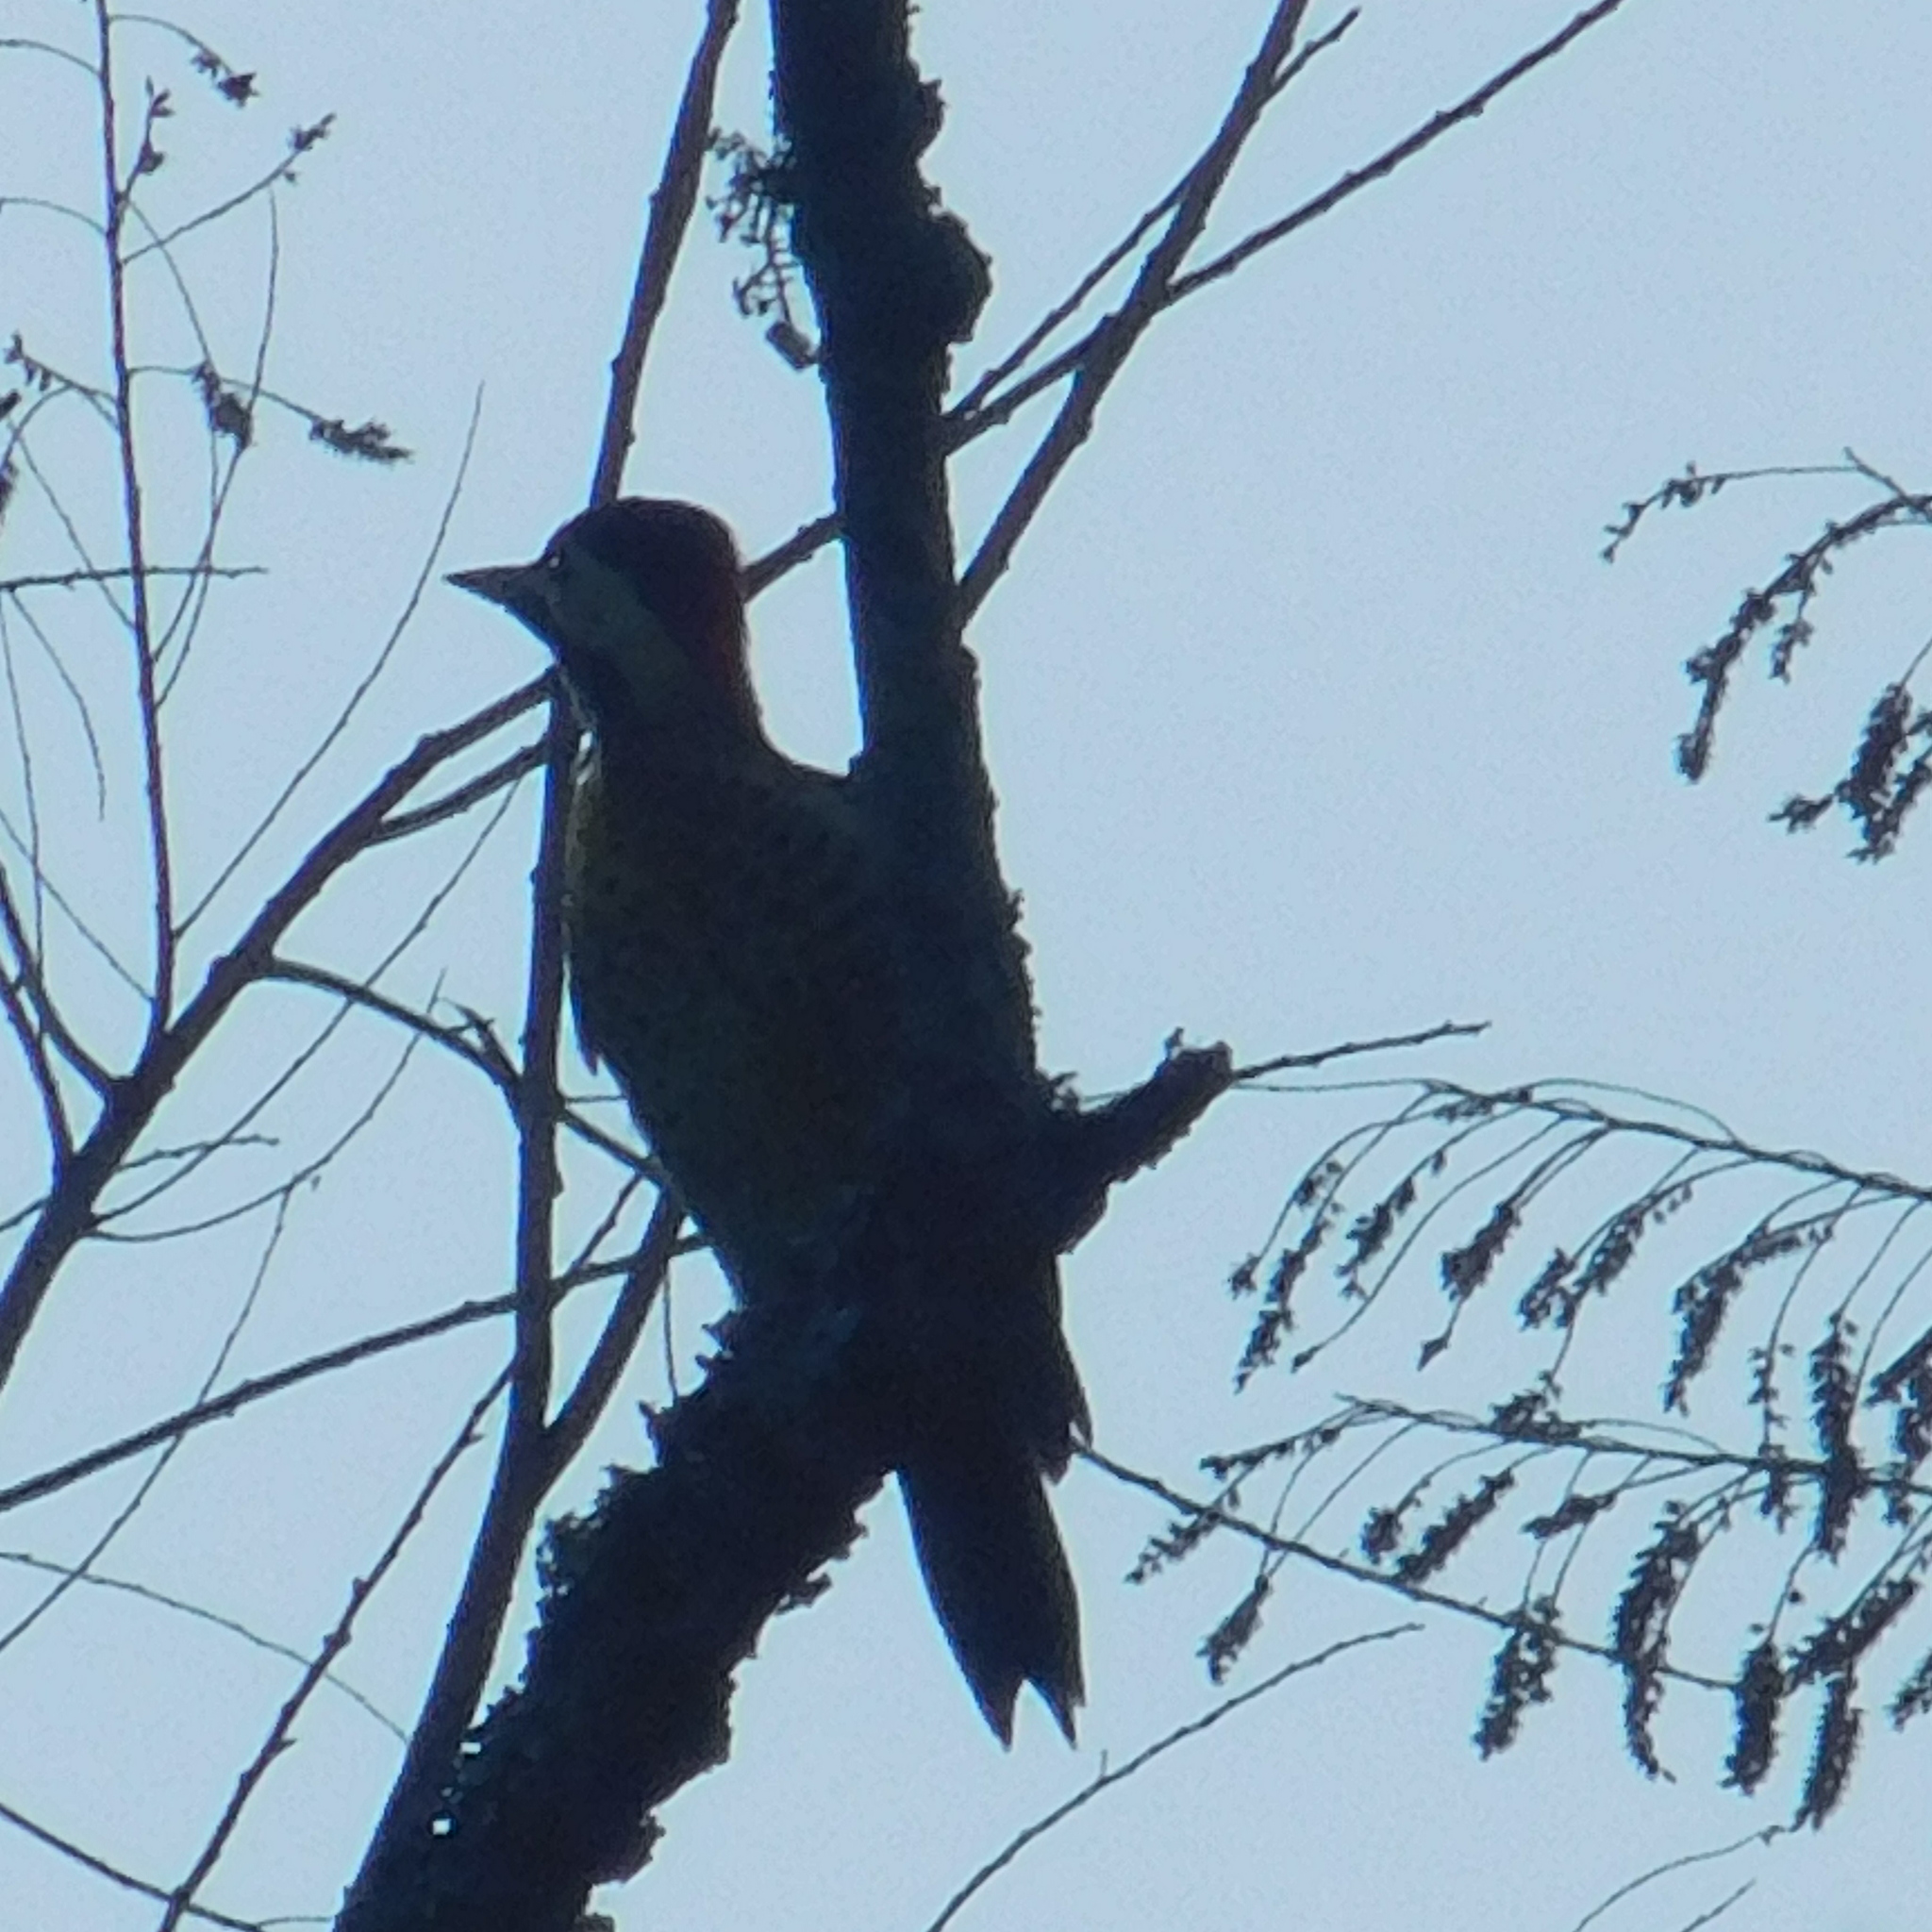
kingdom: Animalia
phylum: Chordata
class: Aves
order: Piciformes
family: Picidae
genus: Colaptes
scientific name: Colaptes melanochloros
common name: Green-barred woodpecker
